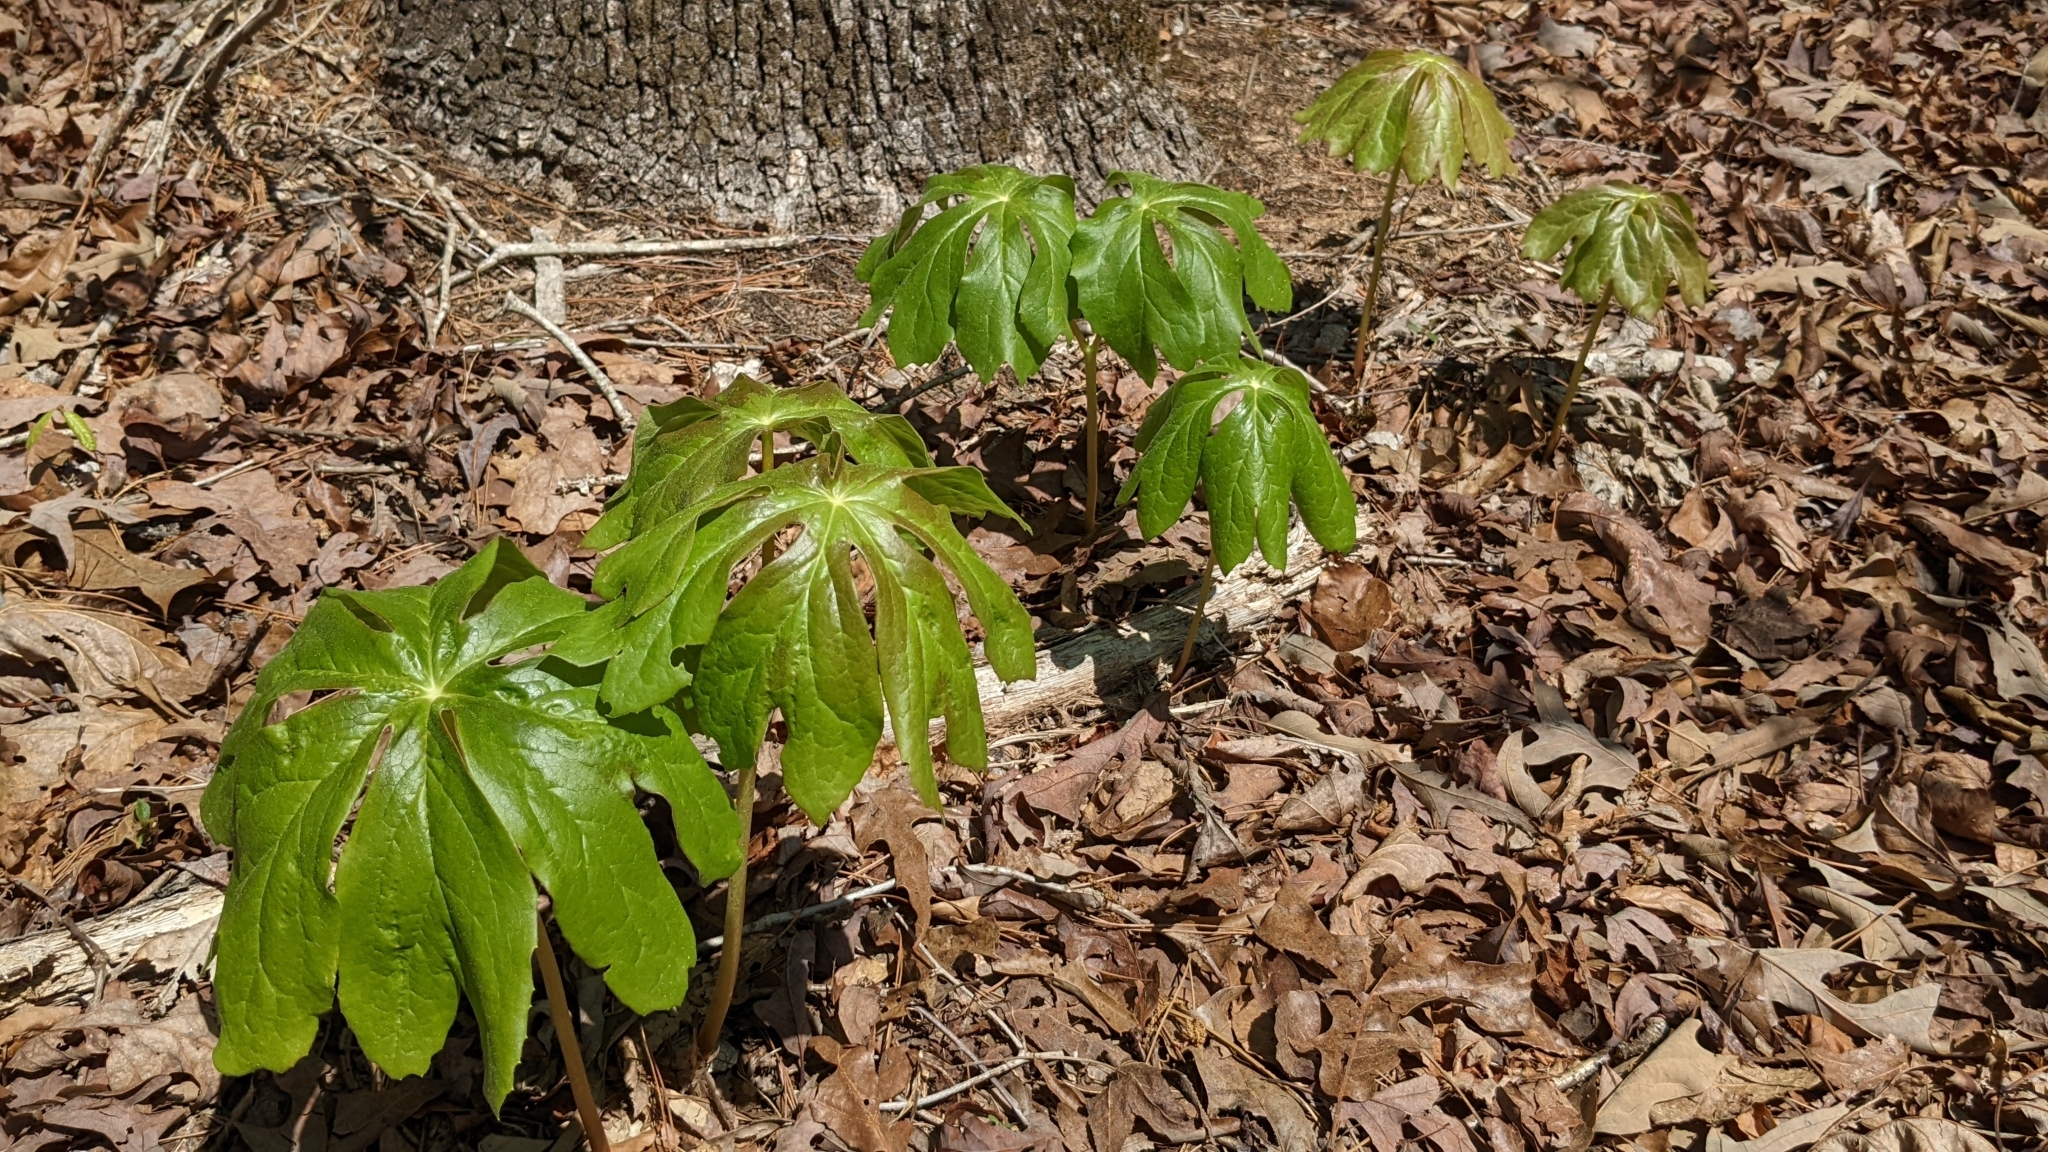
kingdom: Plantae
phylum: Tracheophyta
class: Magnoliopsida
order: Ranunculales
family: Berberidaceae
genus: Podophyllum
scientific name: Podophyllum peltatum
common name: Wild mandrake
